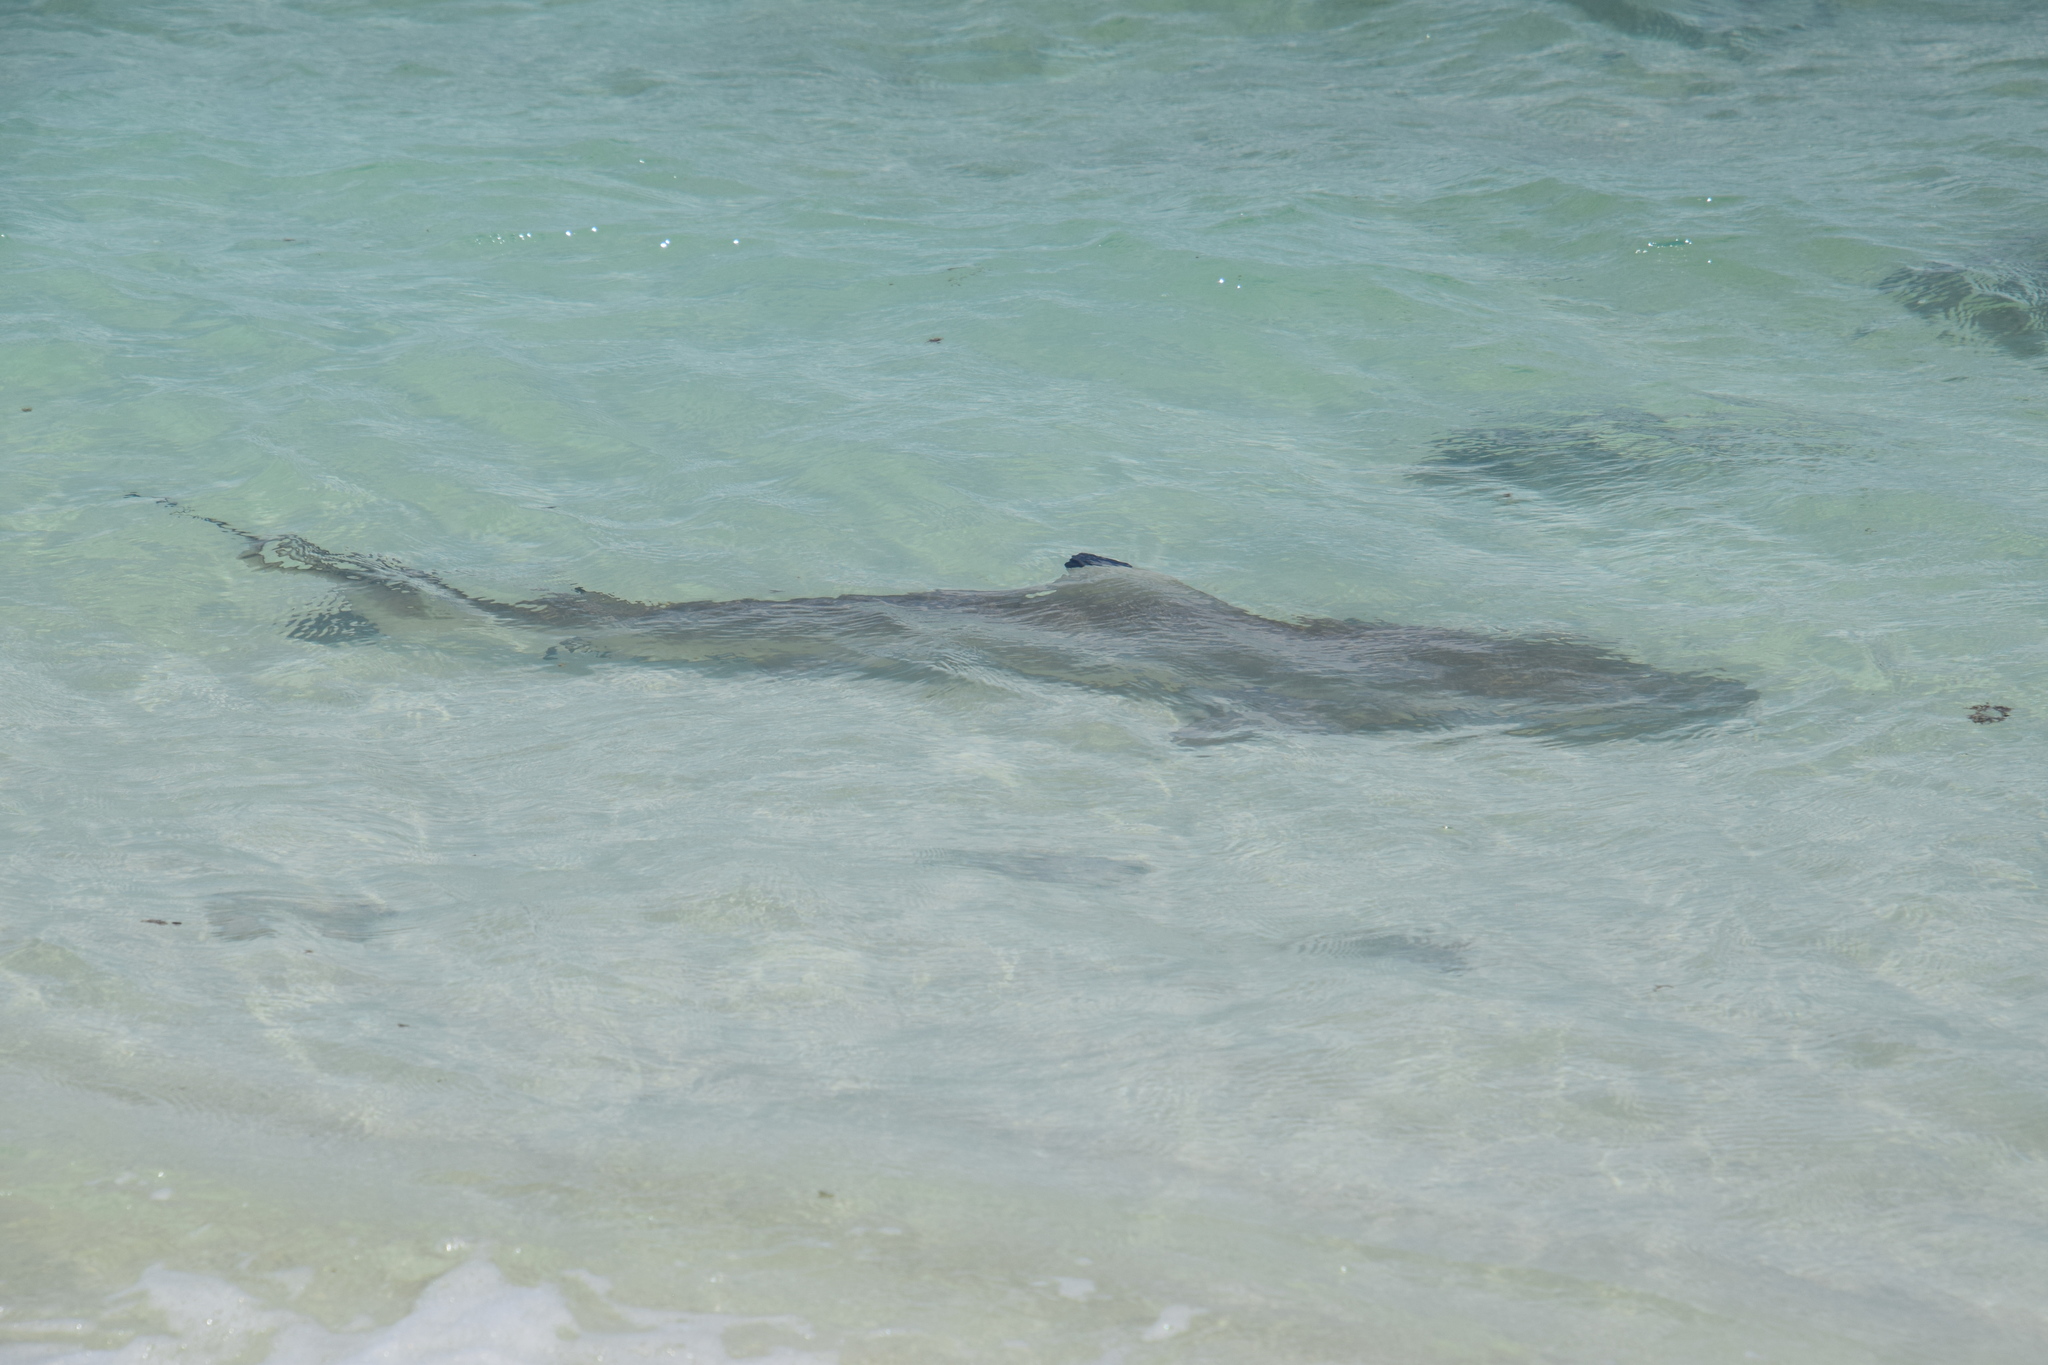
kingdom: Animalia
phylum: Chordata
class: Elasmobranchii
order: Carcharhiniformes
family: Carcharhinidae
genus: Carcharhinus
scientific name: Carcharhinus melanopterus
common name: Blacktip reef shark
